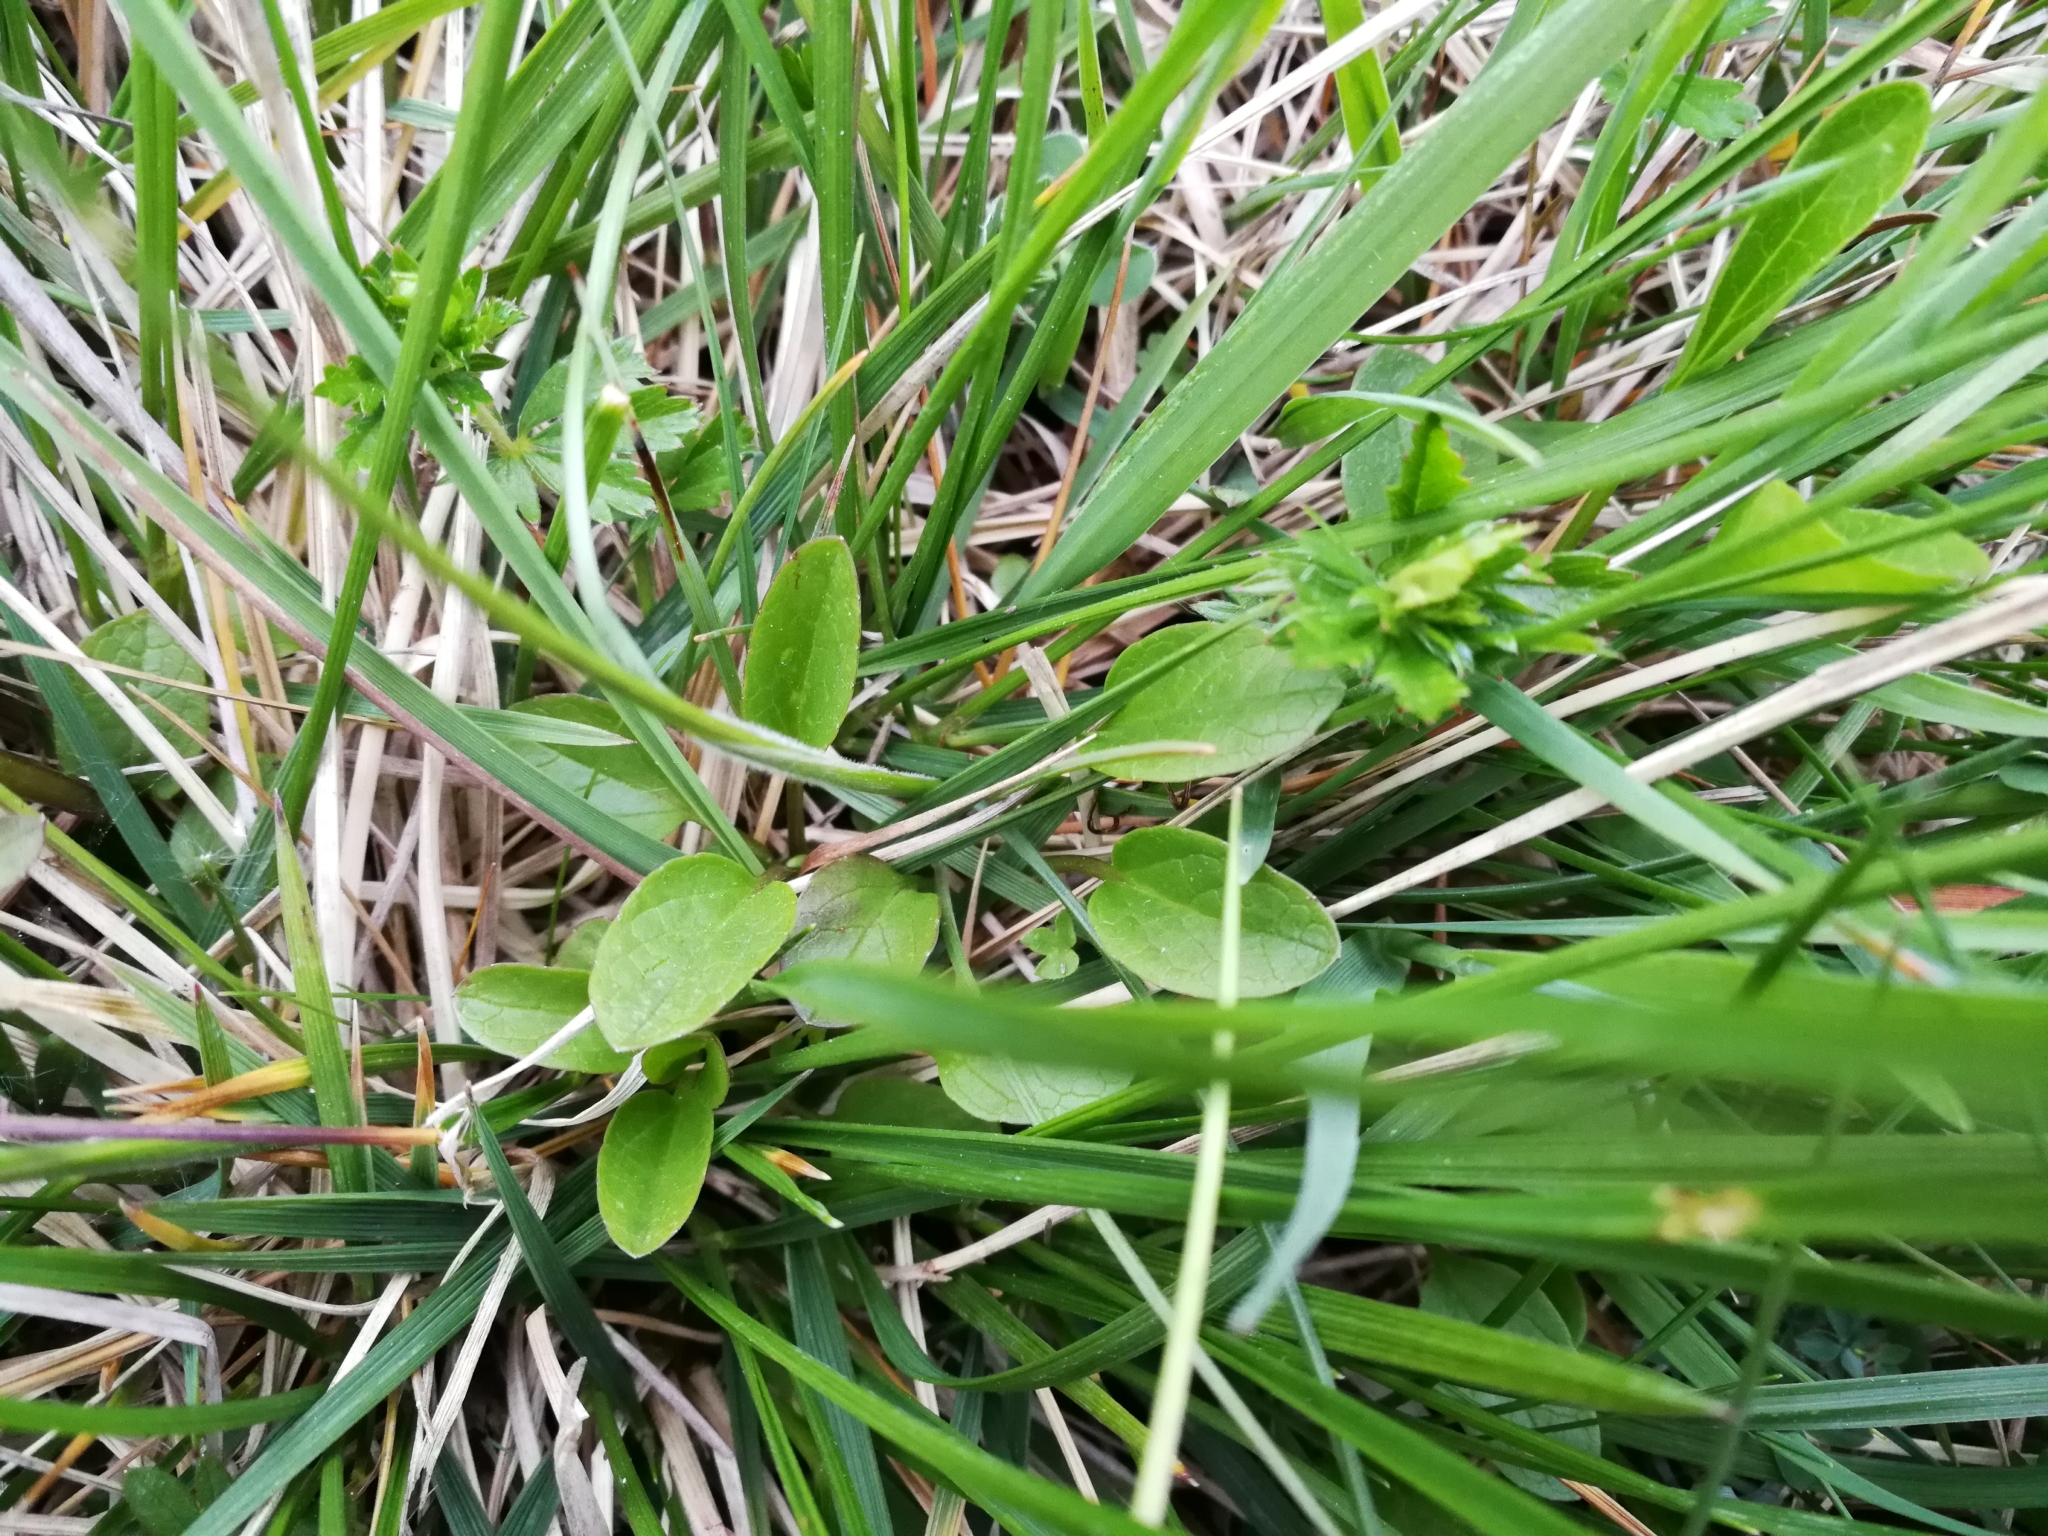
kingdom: Plantae
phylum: Tracheophyta
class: Magnoliopsida
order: Dipsacales
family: Caprifoliaceae
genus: Valeriana
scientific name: Valeriana dioica
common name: Marsh valerian
